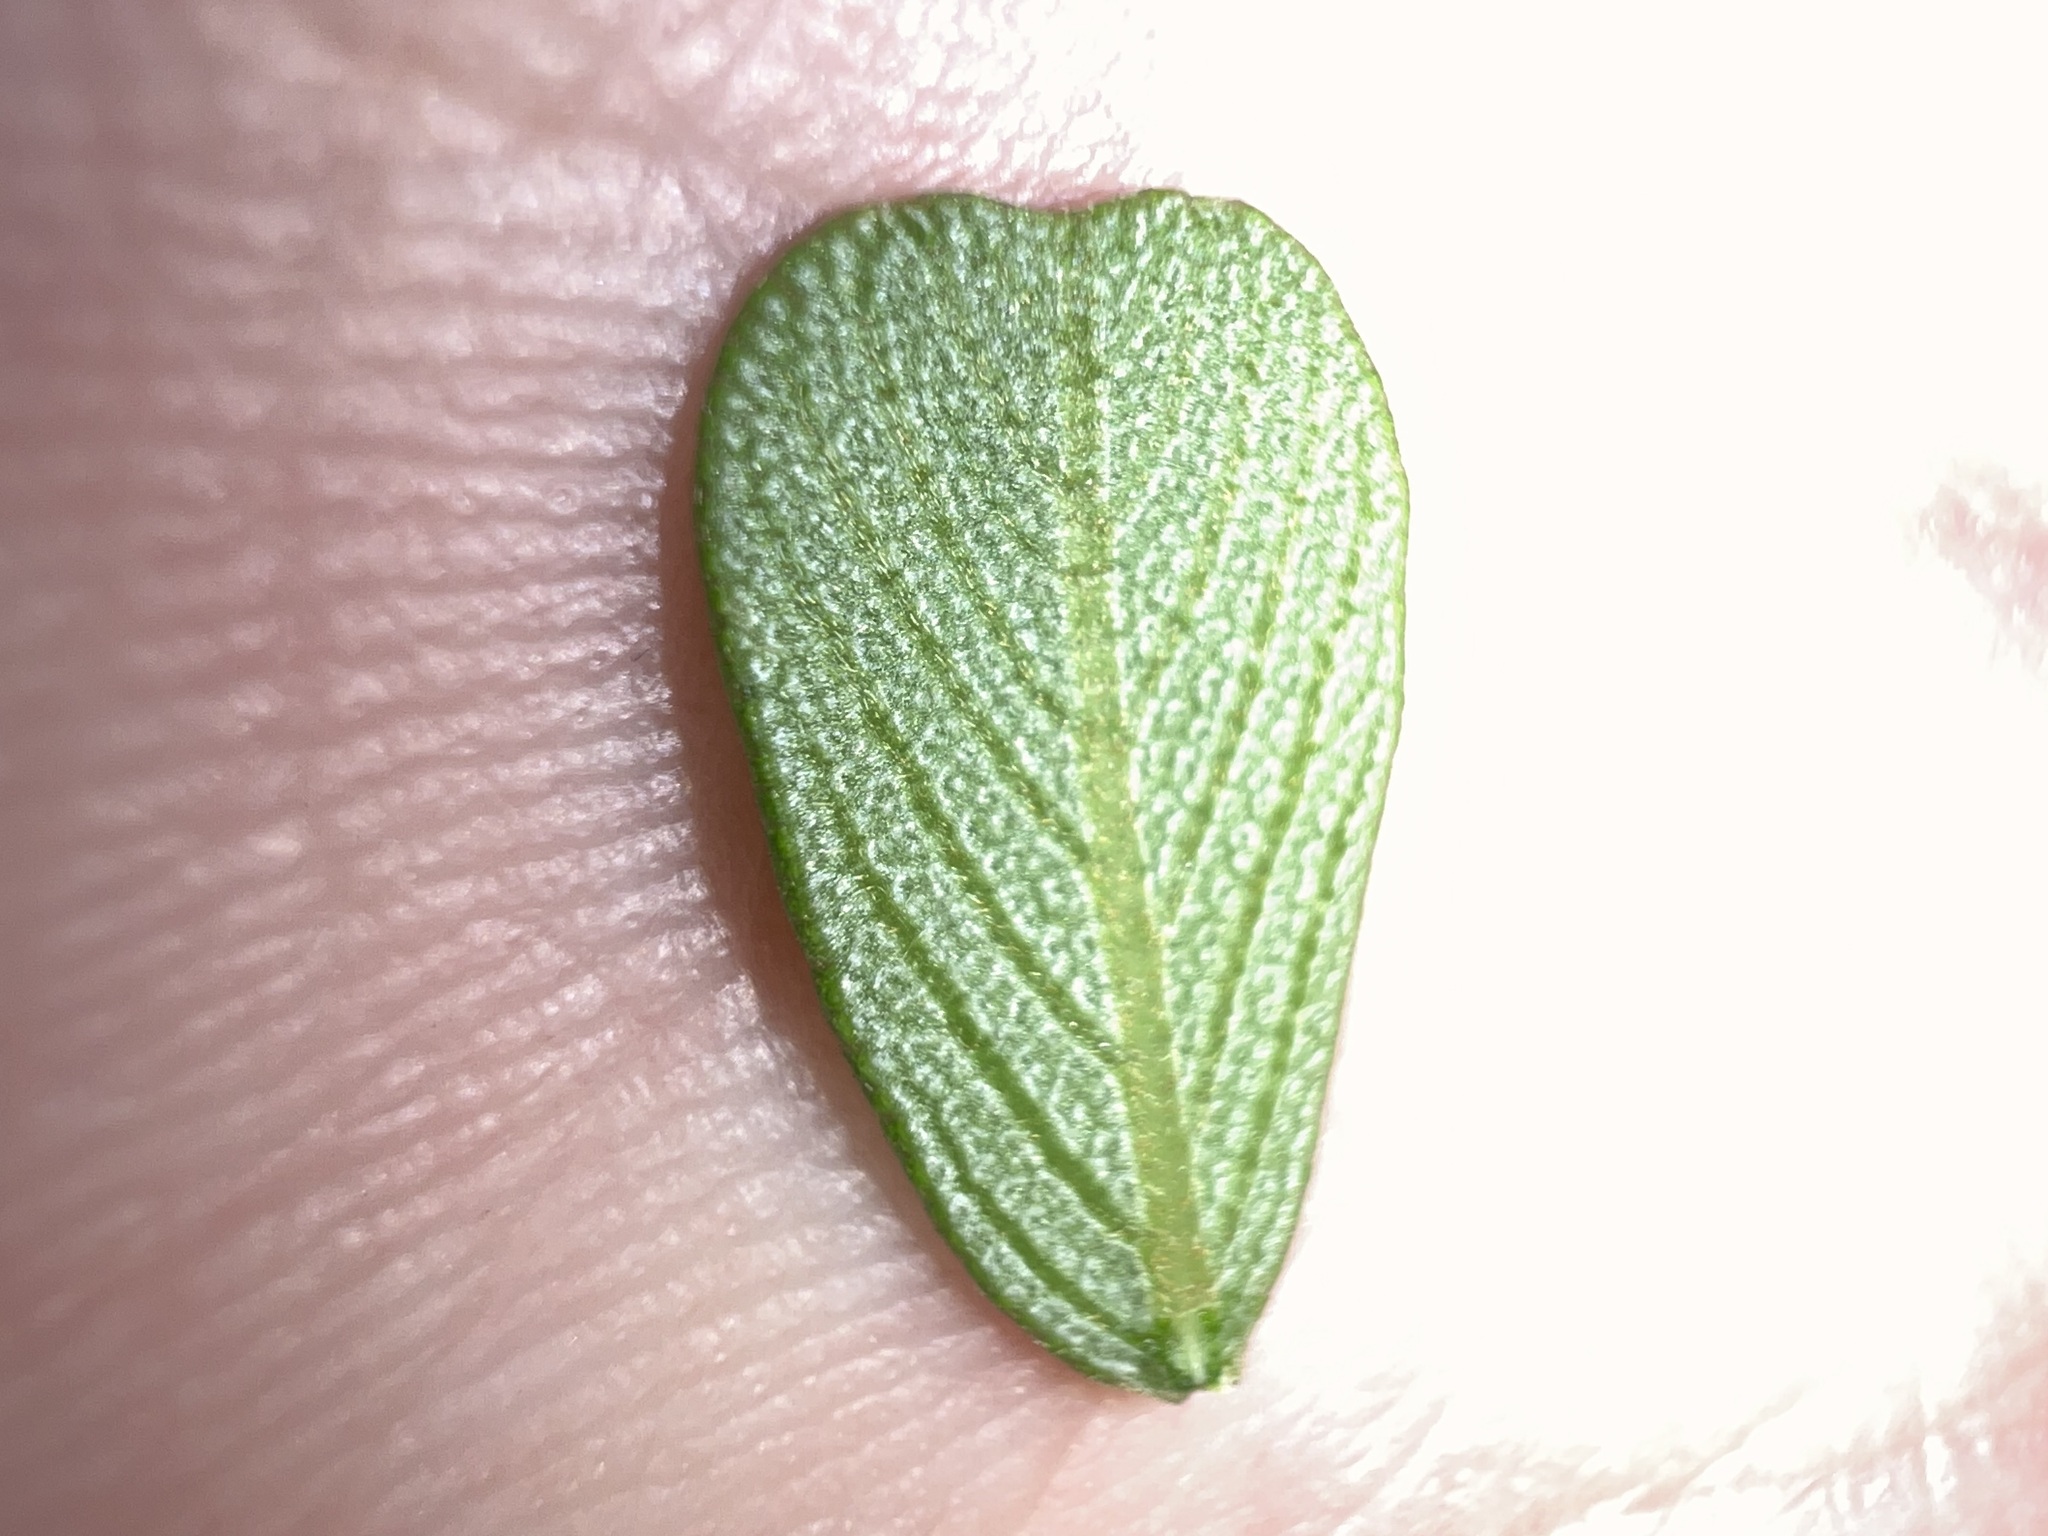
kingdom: Plantae
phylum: Tracheophyta
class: Magnoliopsida
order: Rosales
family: Rhamnaceae
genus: Ceanothus
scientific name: Ceanothus megacarpus
